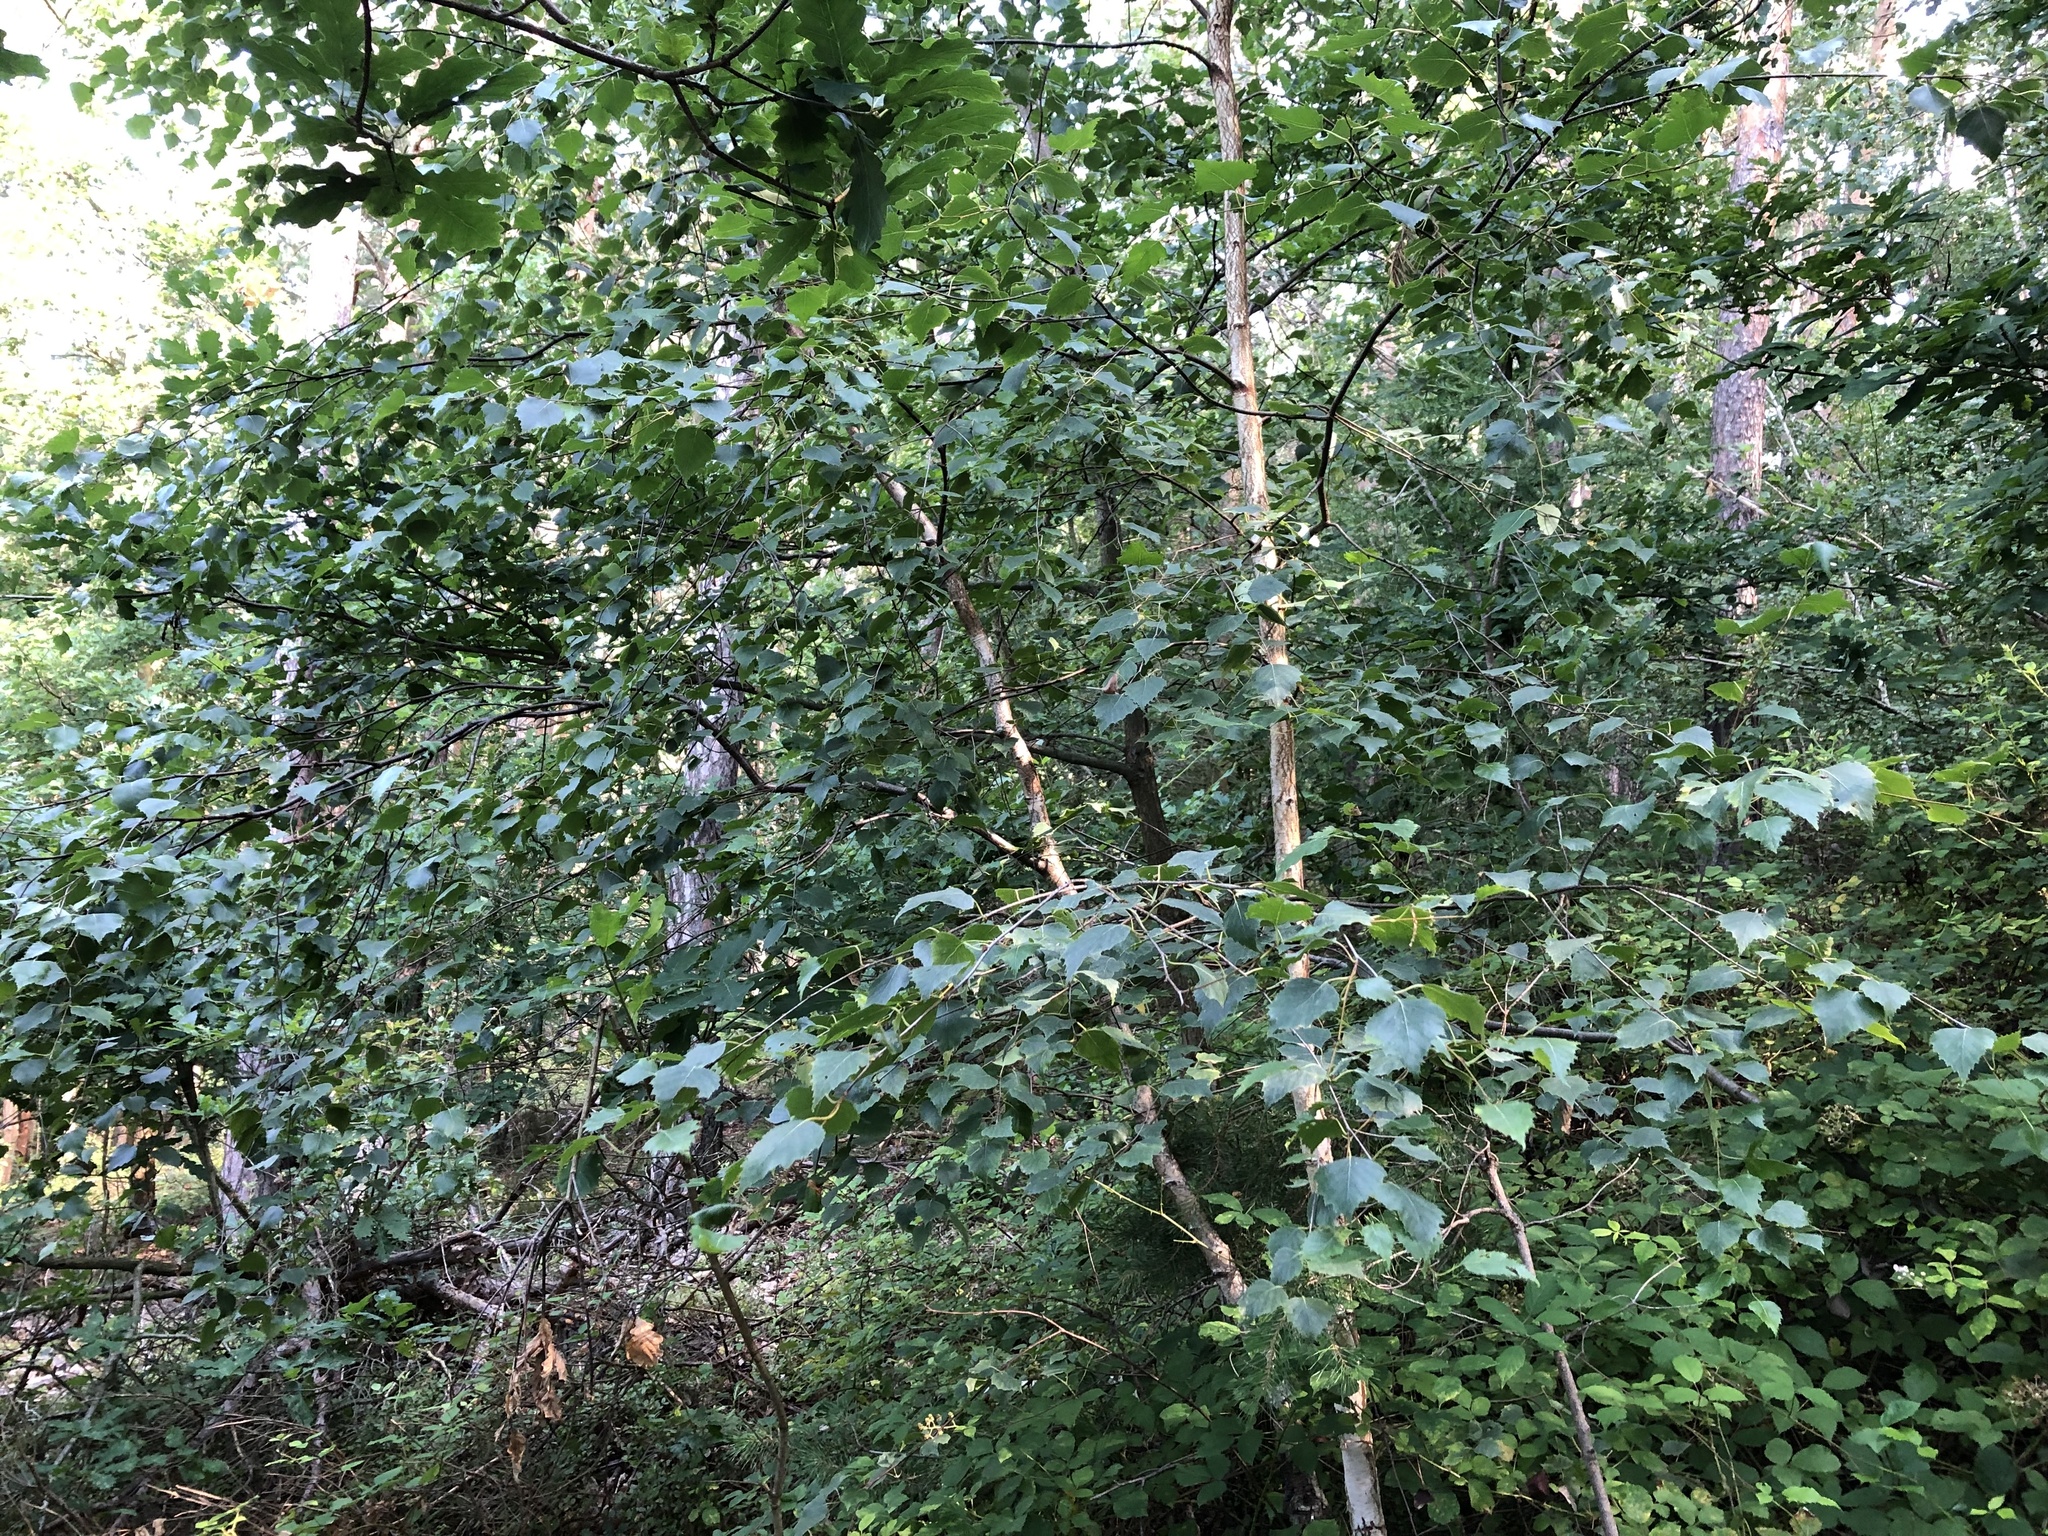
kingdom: Plantae
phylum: Tracheophyta
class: Magnoliopsida
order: Fagales
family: Betulaceae
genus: Betula
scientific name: Betula pendula
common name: Silver birch
